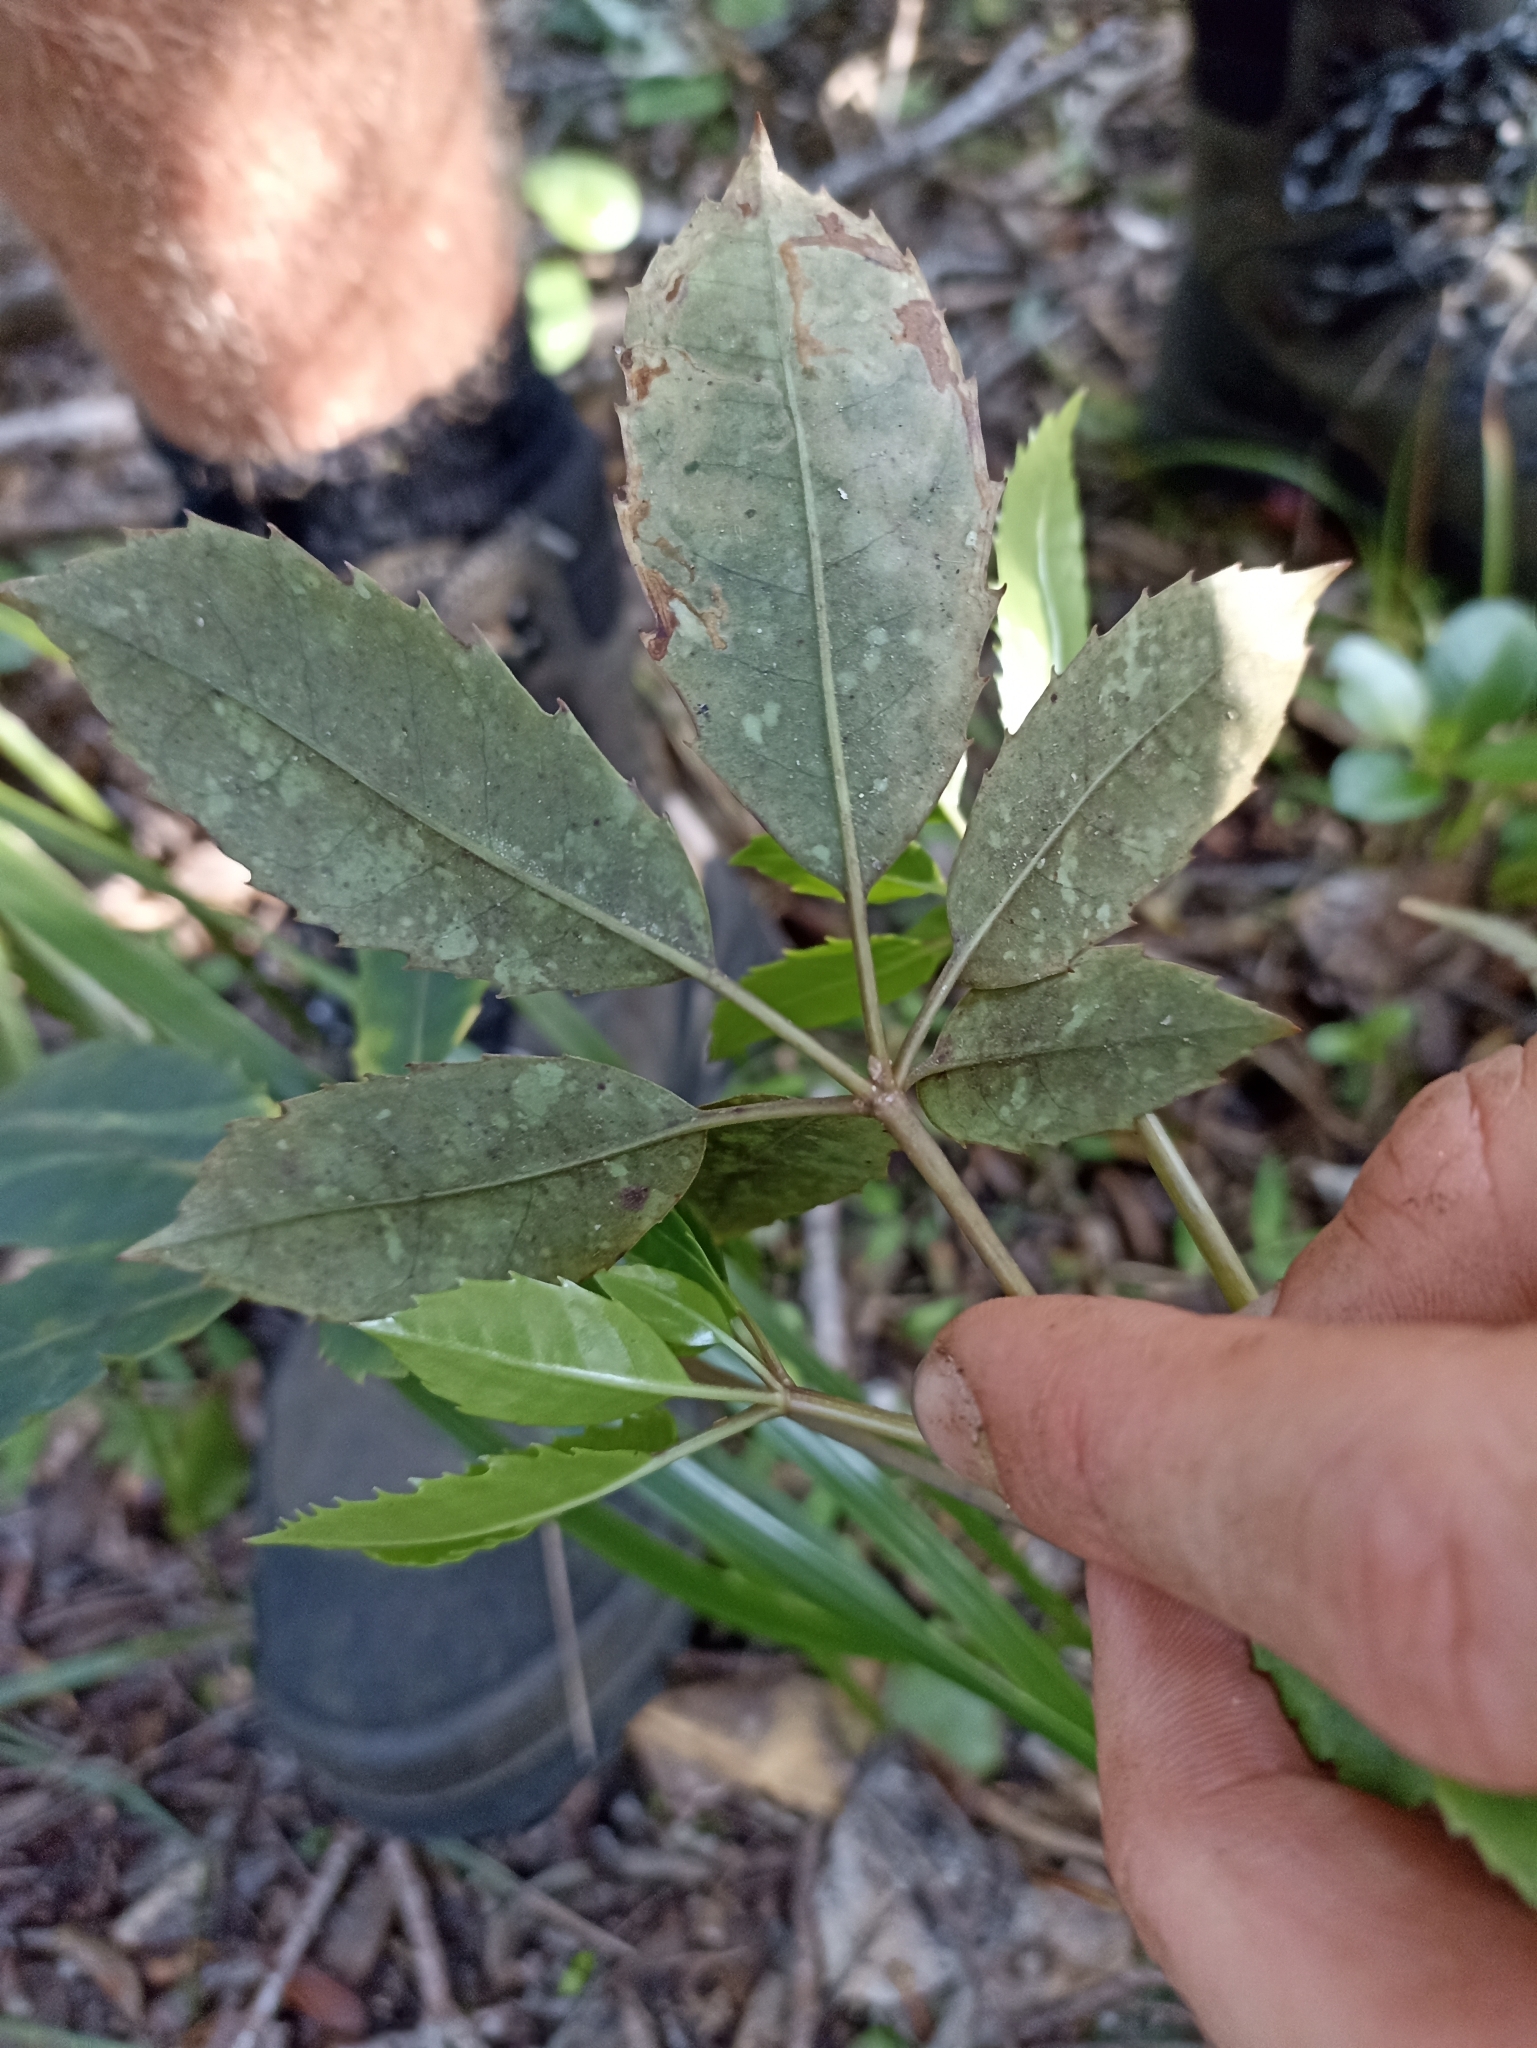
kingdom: Plantae
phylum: Tracheophyta
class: Magnoliopsida
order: Apiales
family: Araliaceae
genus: Neopanax
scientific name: Neopanax arboreus
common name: Five-fingers
